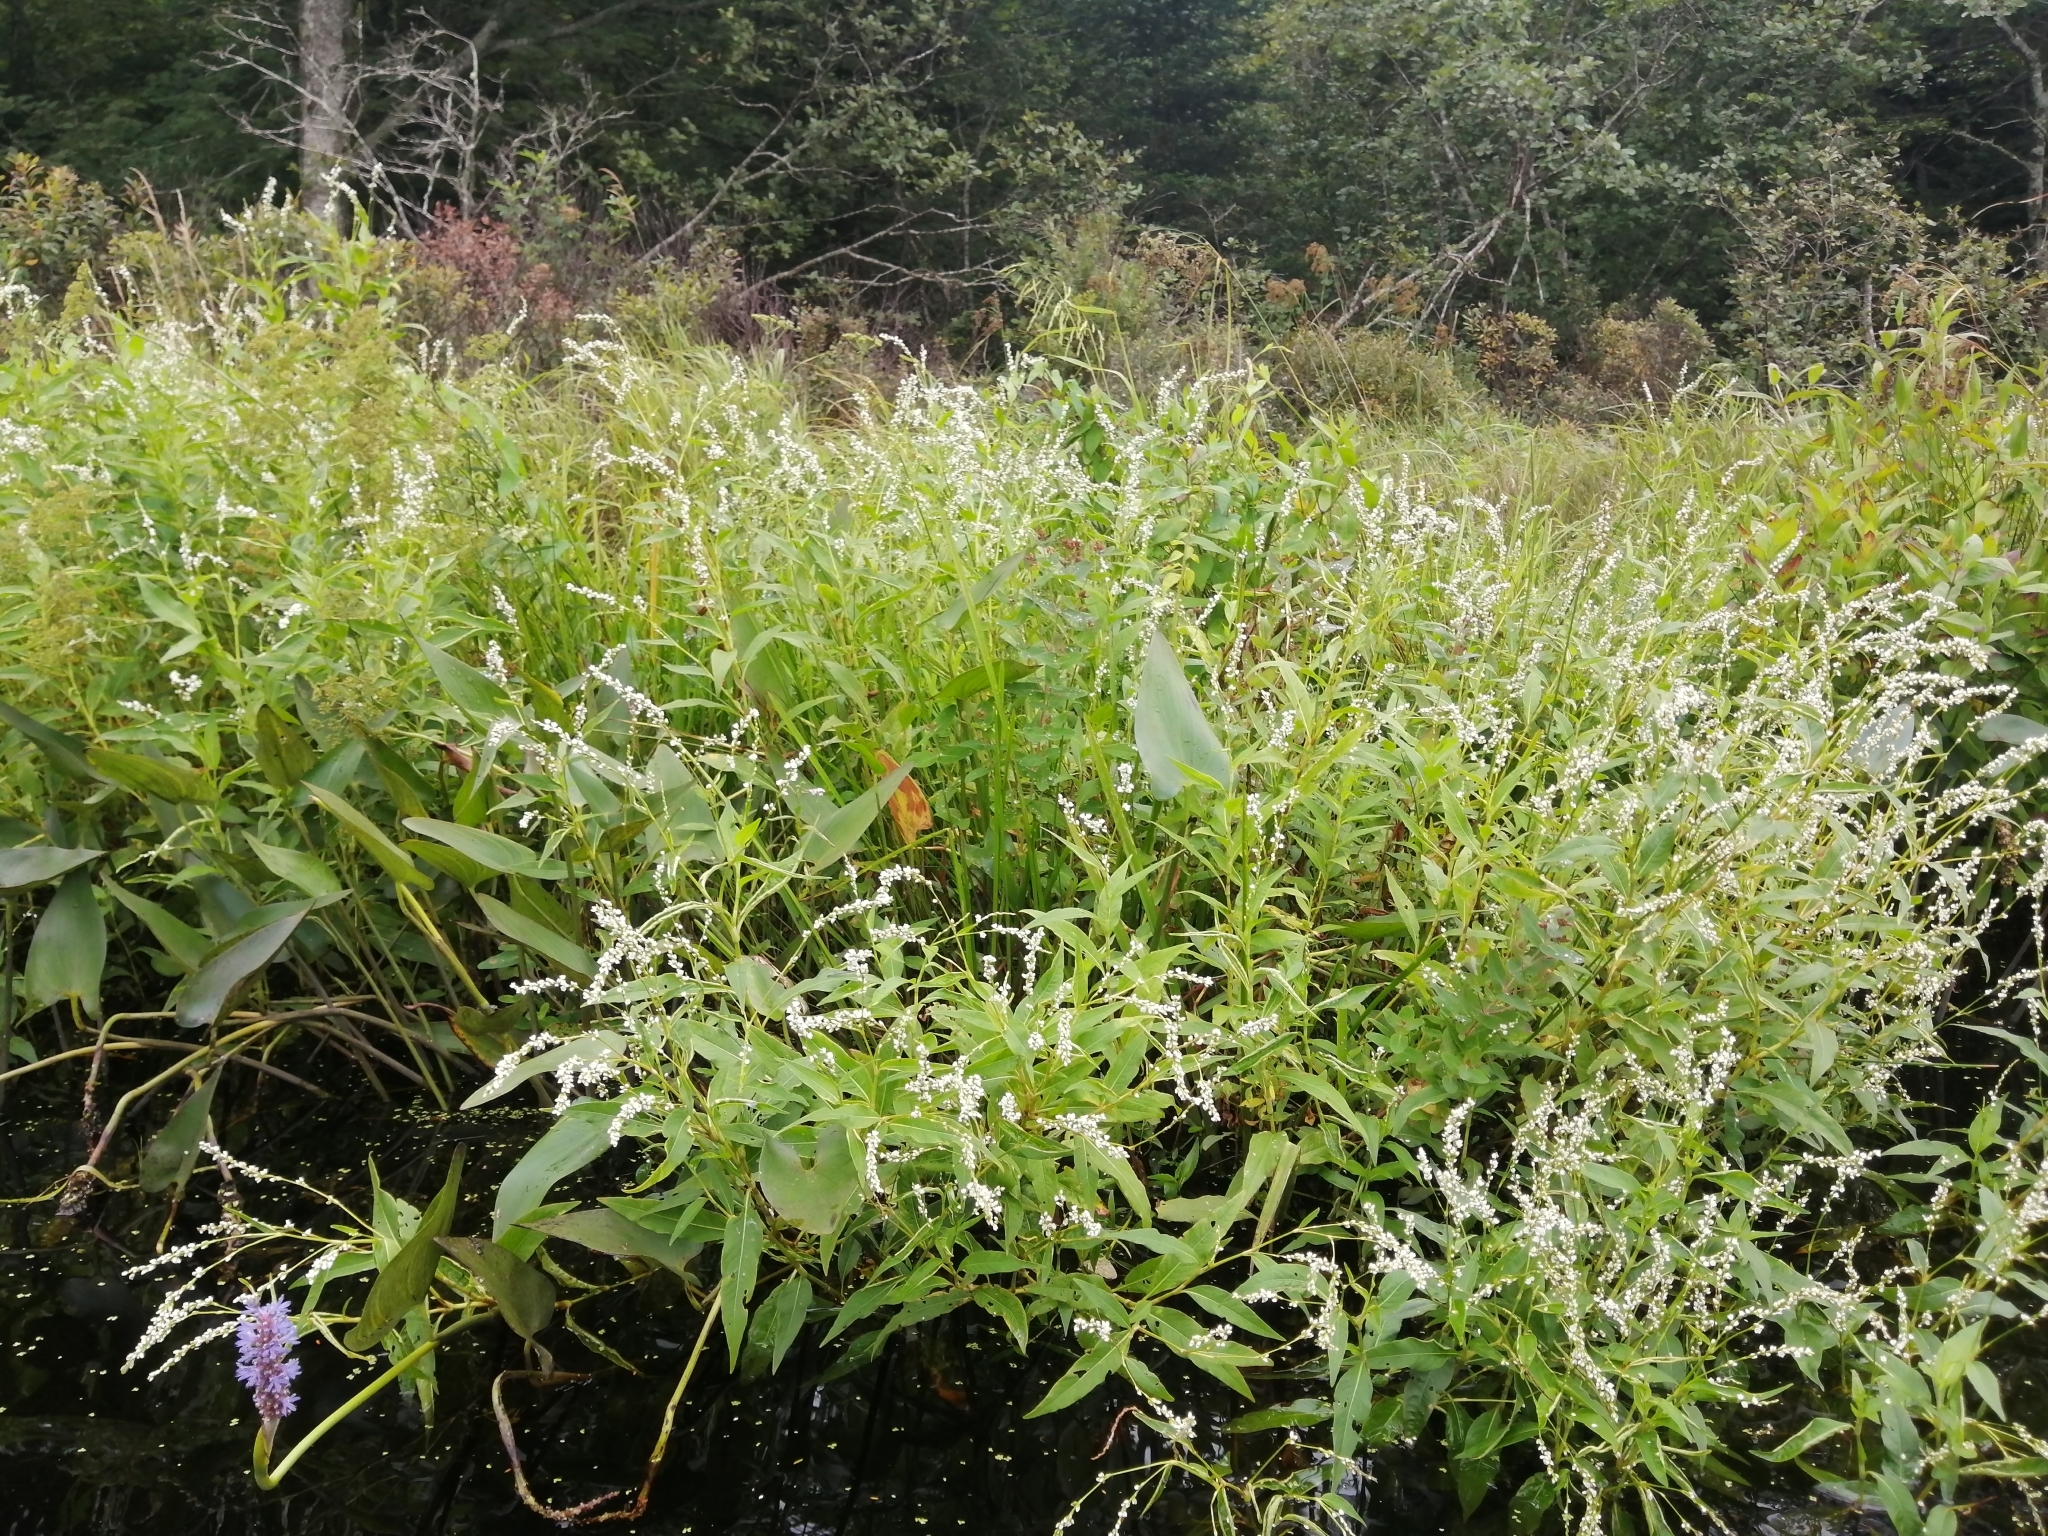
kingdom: Plantae
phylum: Tracheophyta
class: Magnoliopsida
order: Caryophyllales
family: Polygonaceae
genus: Persicaria
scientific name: Persicaria robustior
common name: Stout smartweed
